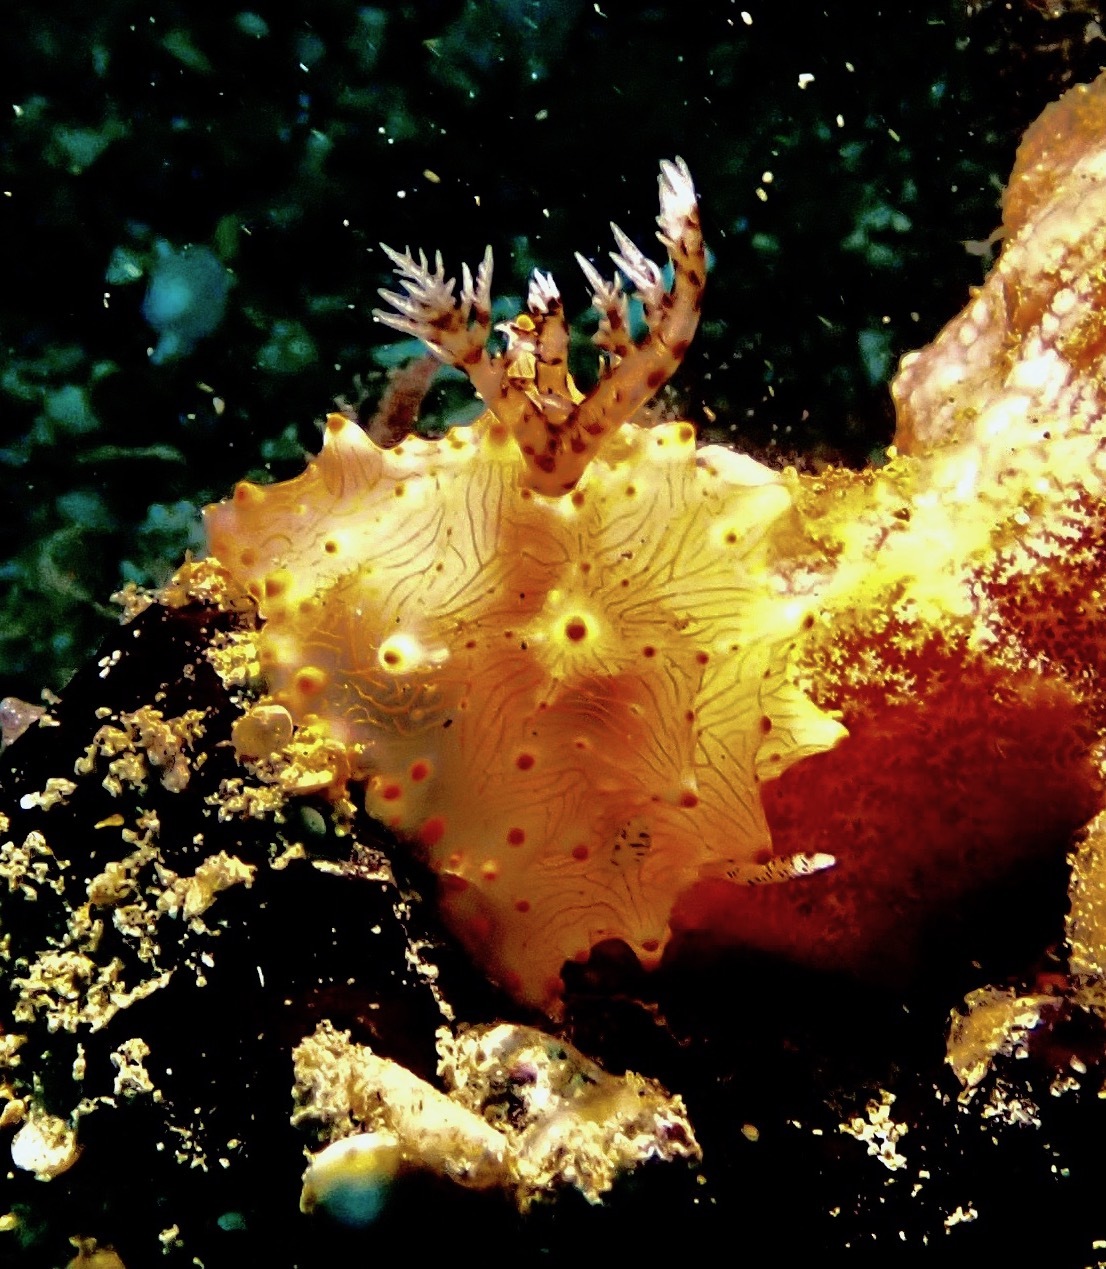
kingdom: Animalia
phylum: Mollusca
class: Gastropoda
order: Nudibranchia
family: Discodorididae
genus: Halgerda
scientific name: Halgerda batangas
